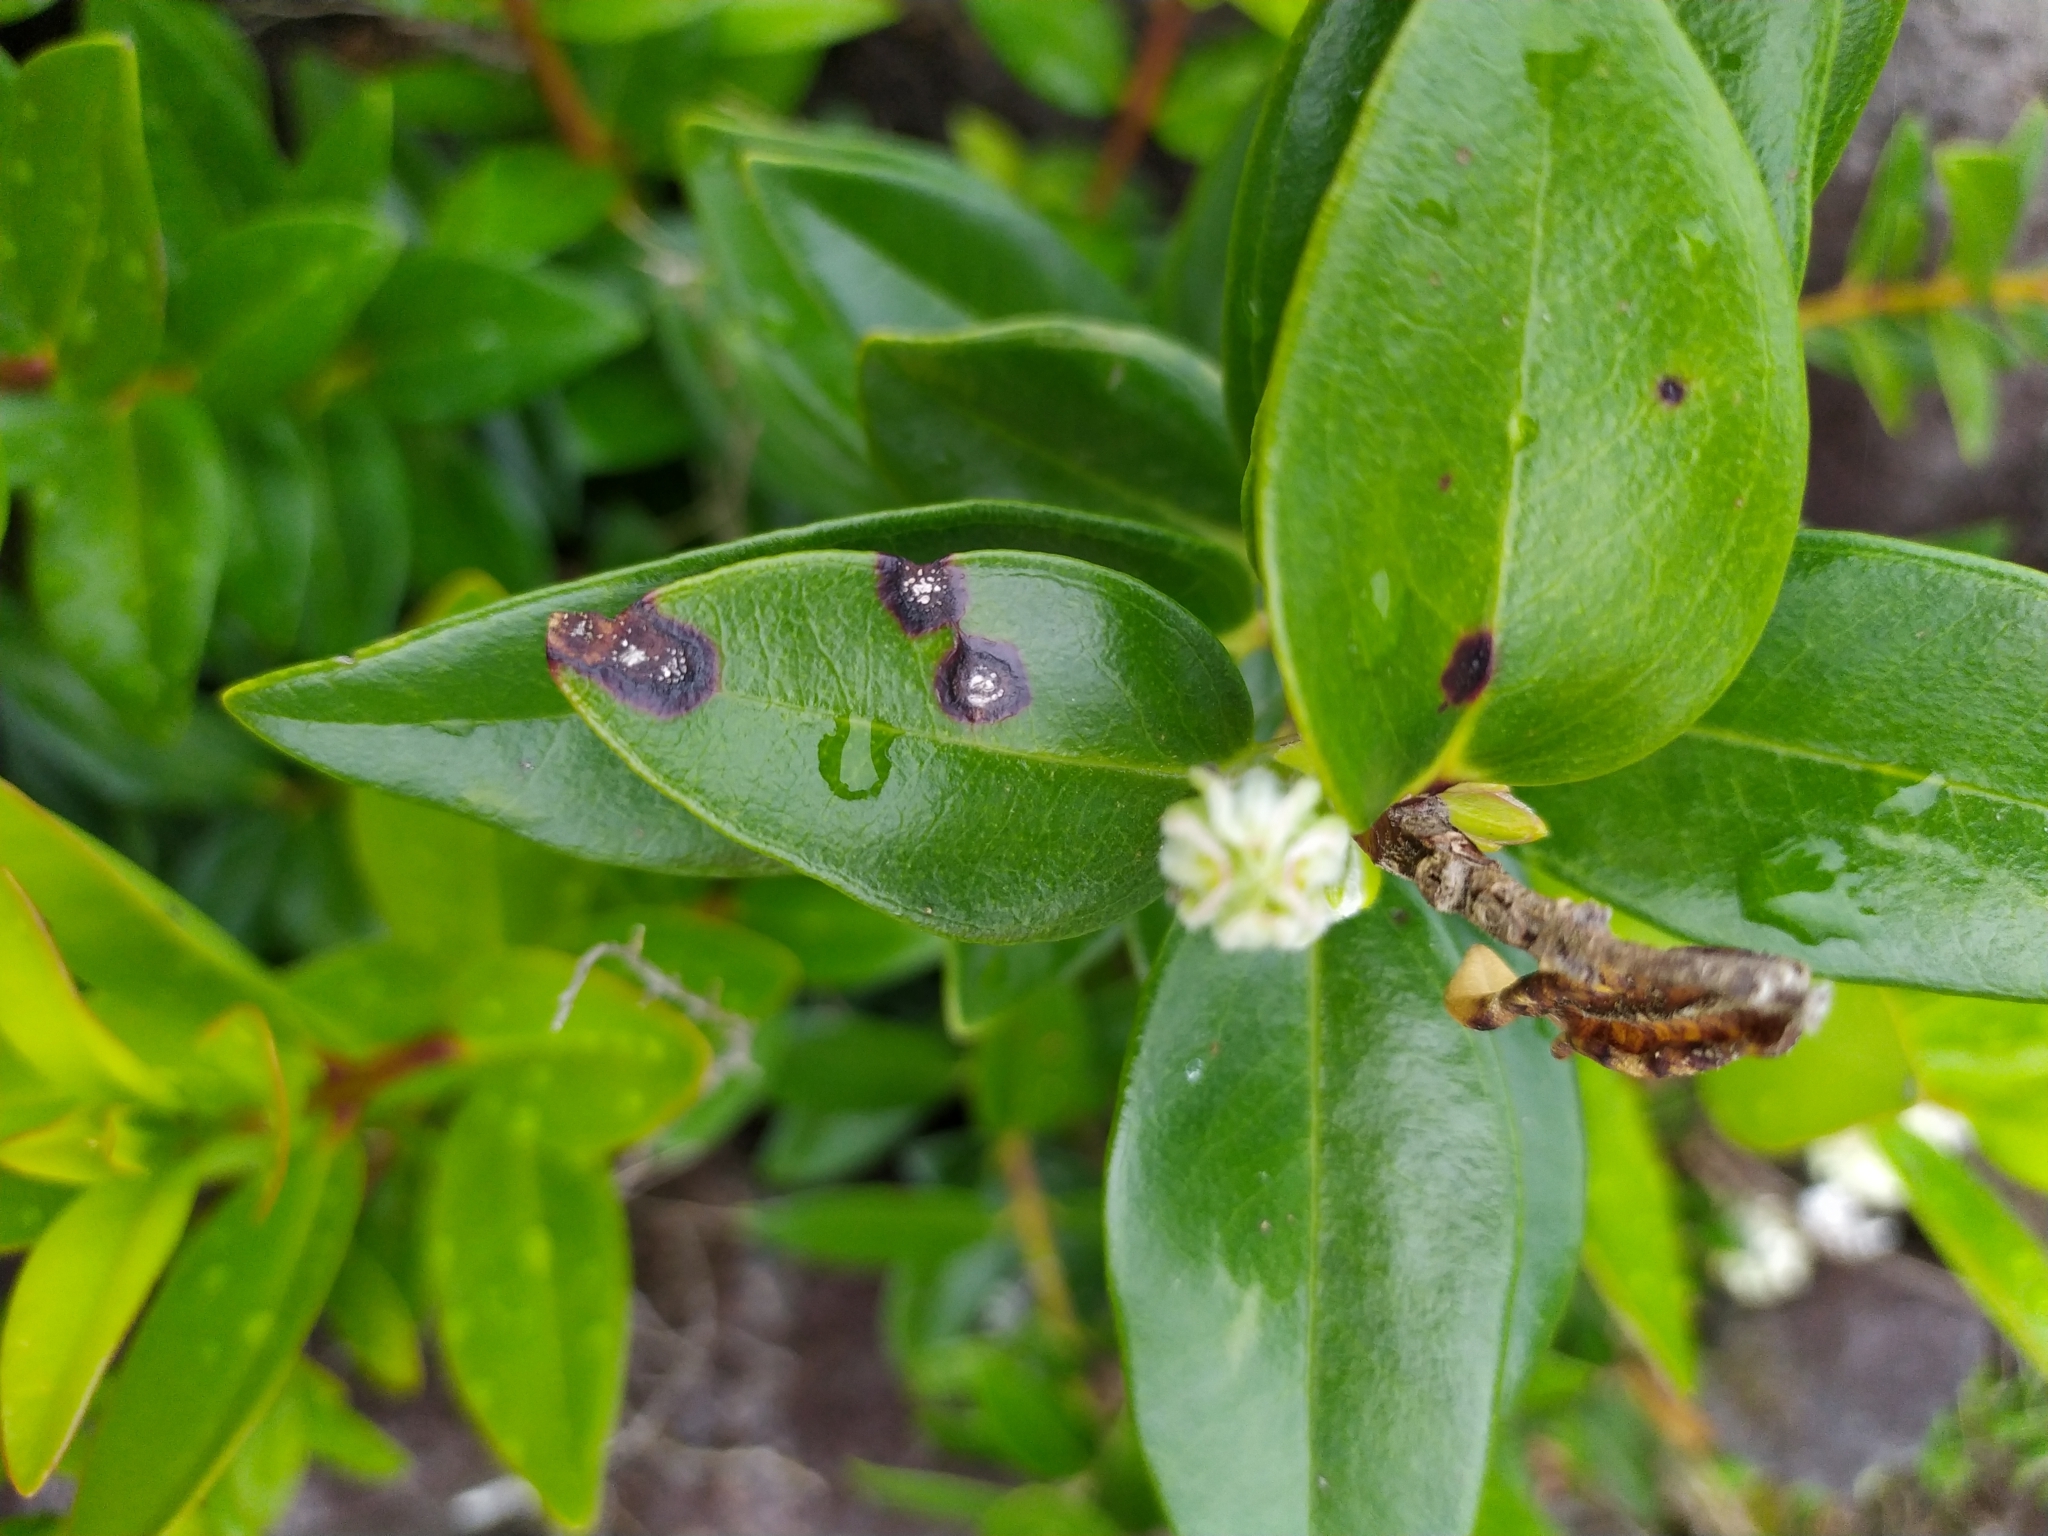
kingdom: Fungi
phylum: Basidiomycota
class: Pucciniomycetes
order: Pucciniales
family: Sphaerophragmiaceae
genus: Austropuccinia
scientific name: Austropuccinia psidii
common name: Myrtle rust
